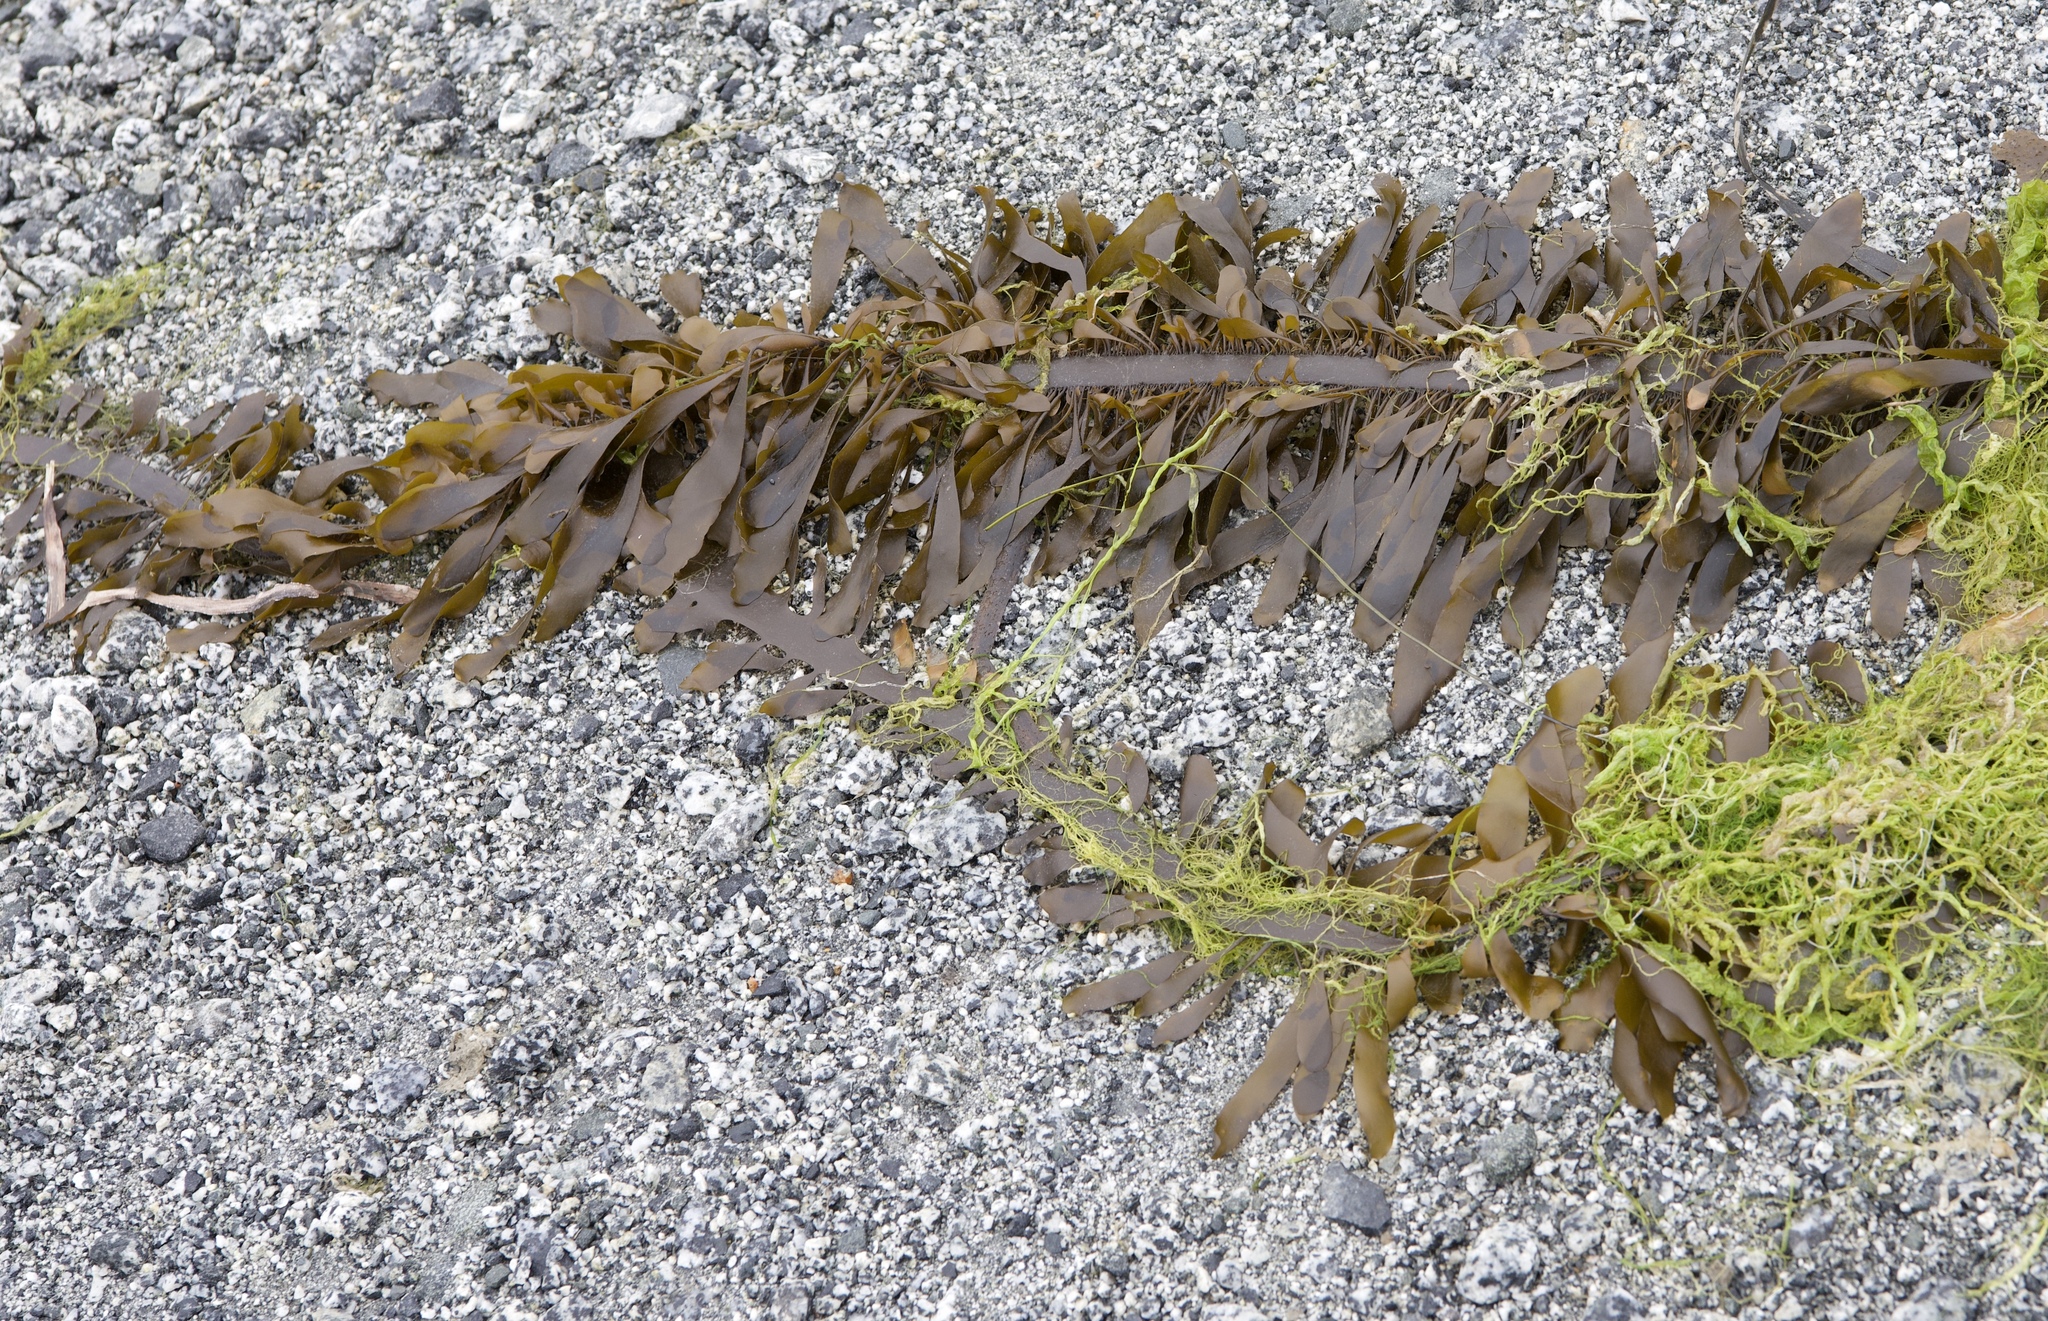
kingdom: Chromista
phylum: Ochrophyta
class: Phaeophyceae
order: Laminariales
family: Lessoniaceae
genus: Egregia
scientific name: Egregia menziesii
